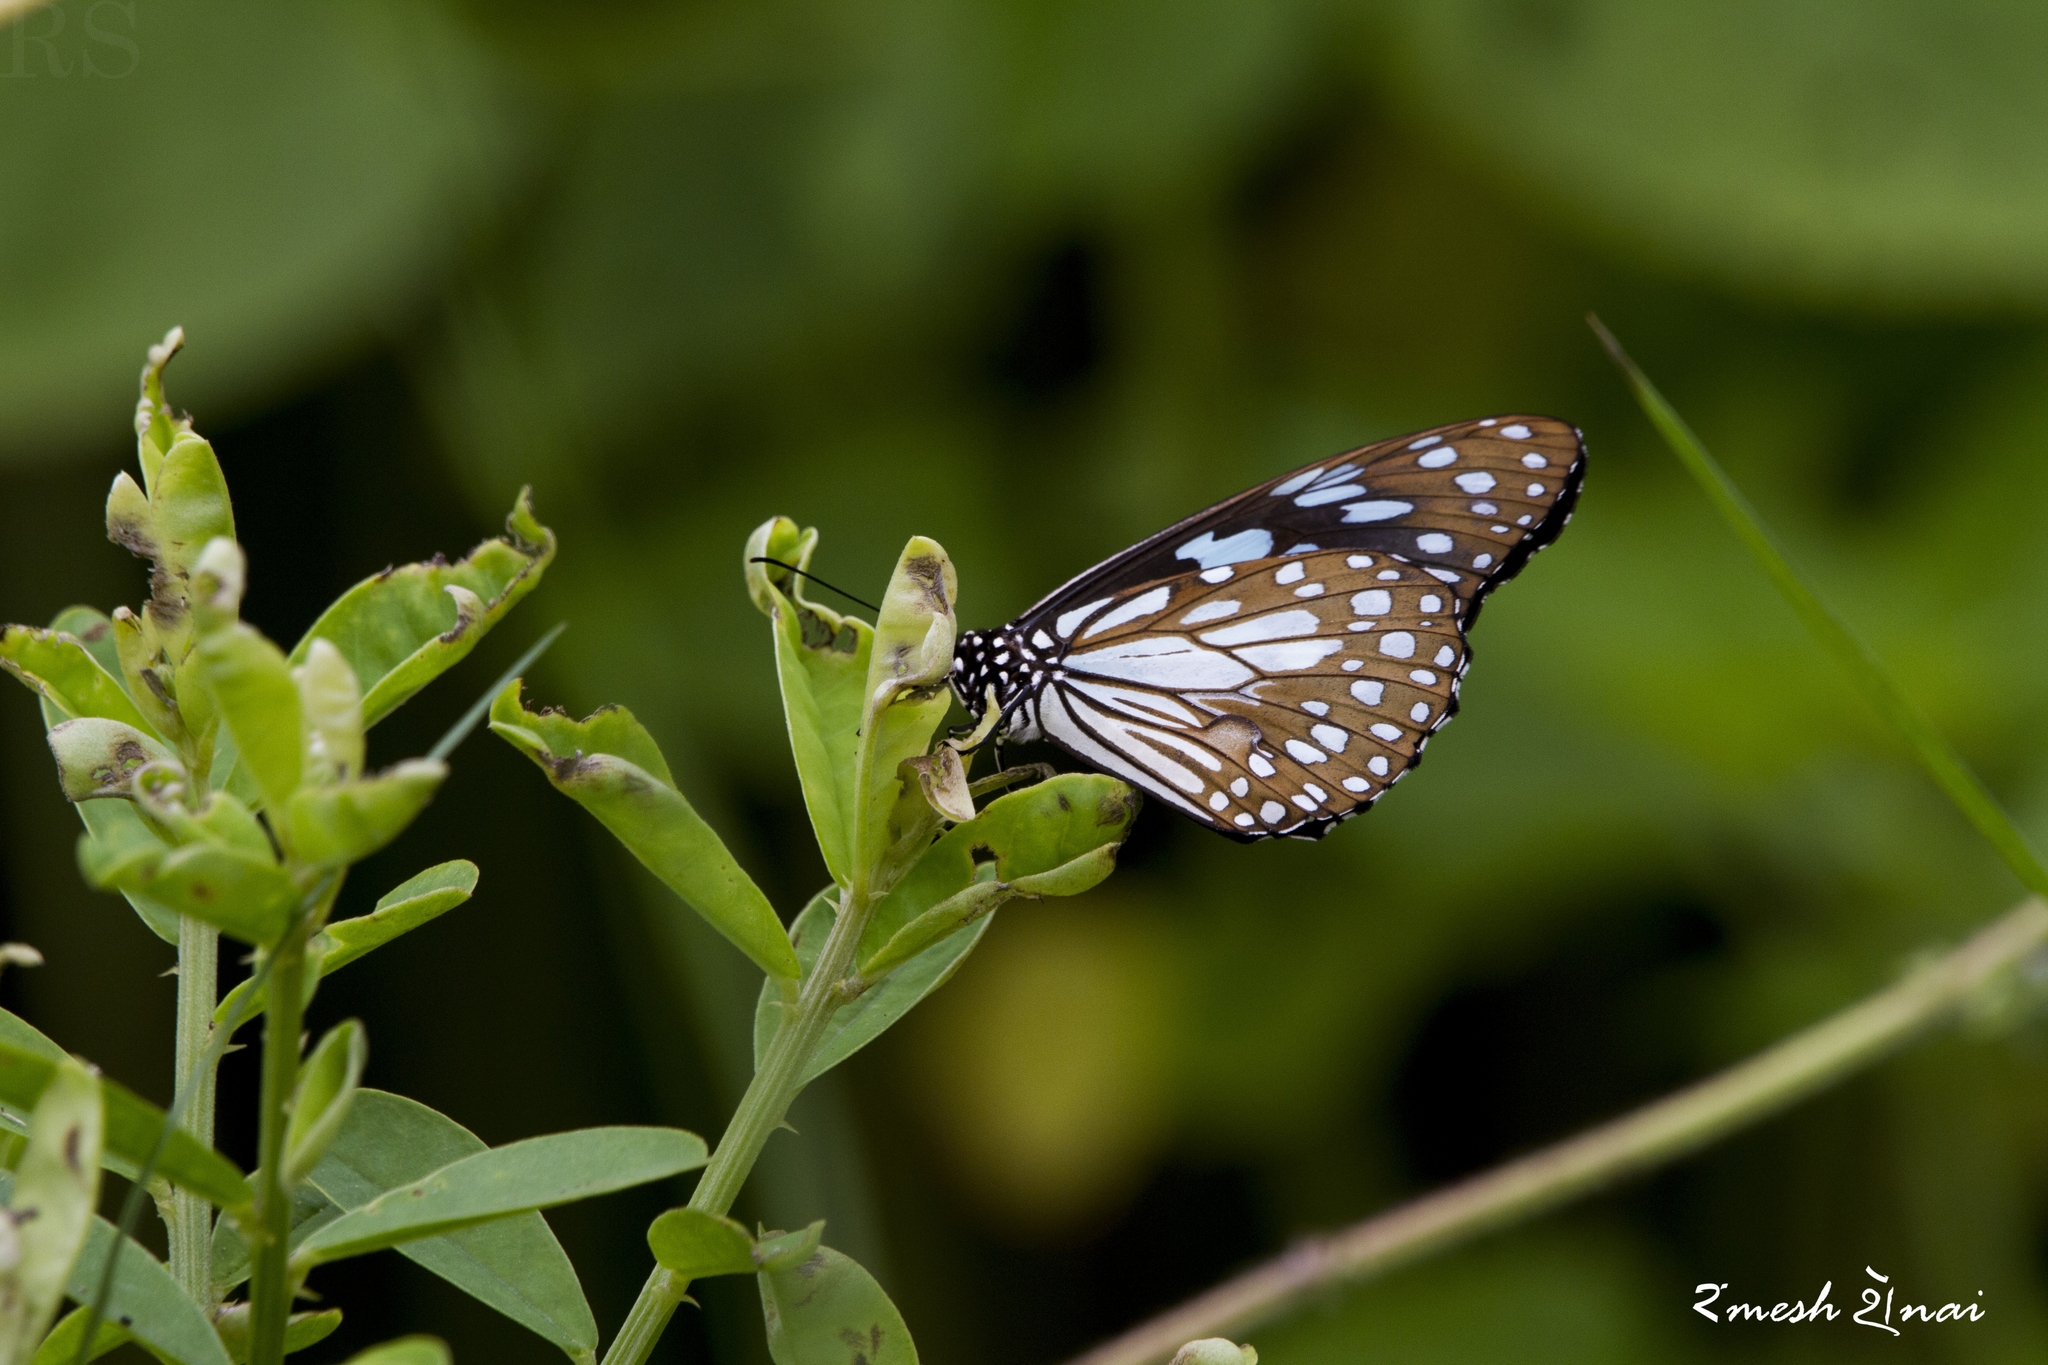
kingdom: Animalia
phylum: Arthropoda
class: Insecta
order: Lepidoptera
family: Nymphalidae
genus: Tirumala
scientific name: Tirumala limniace
